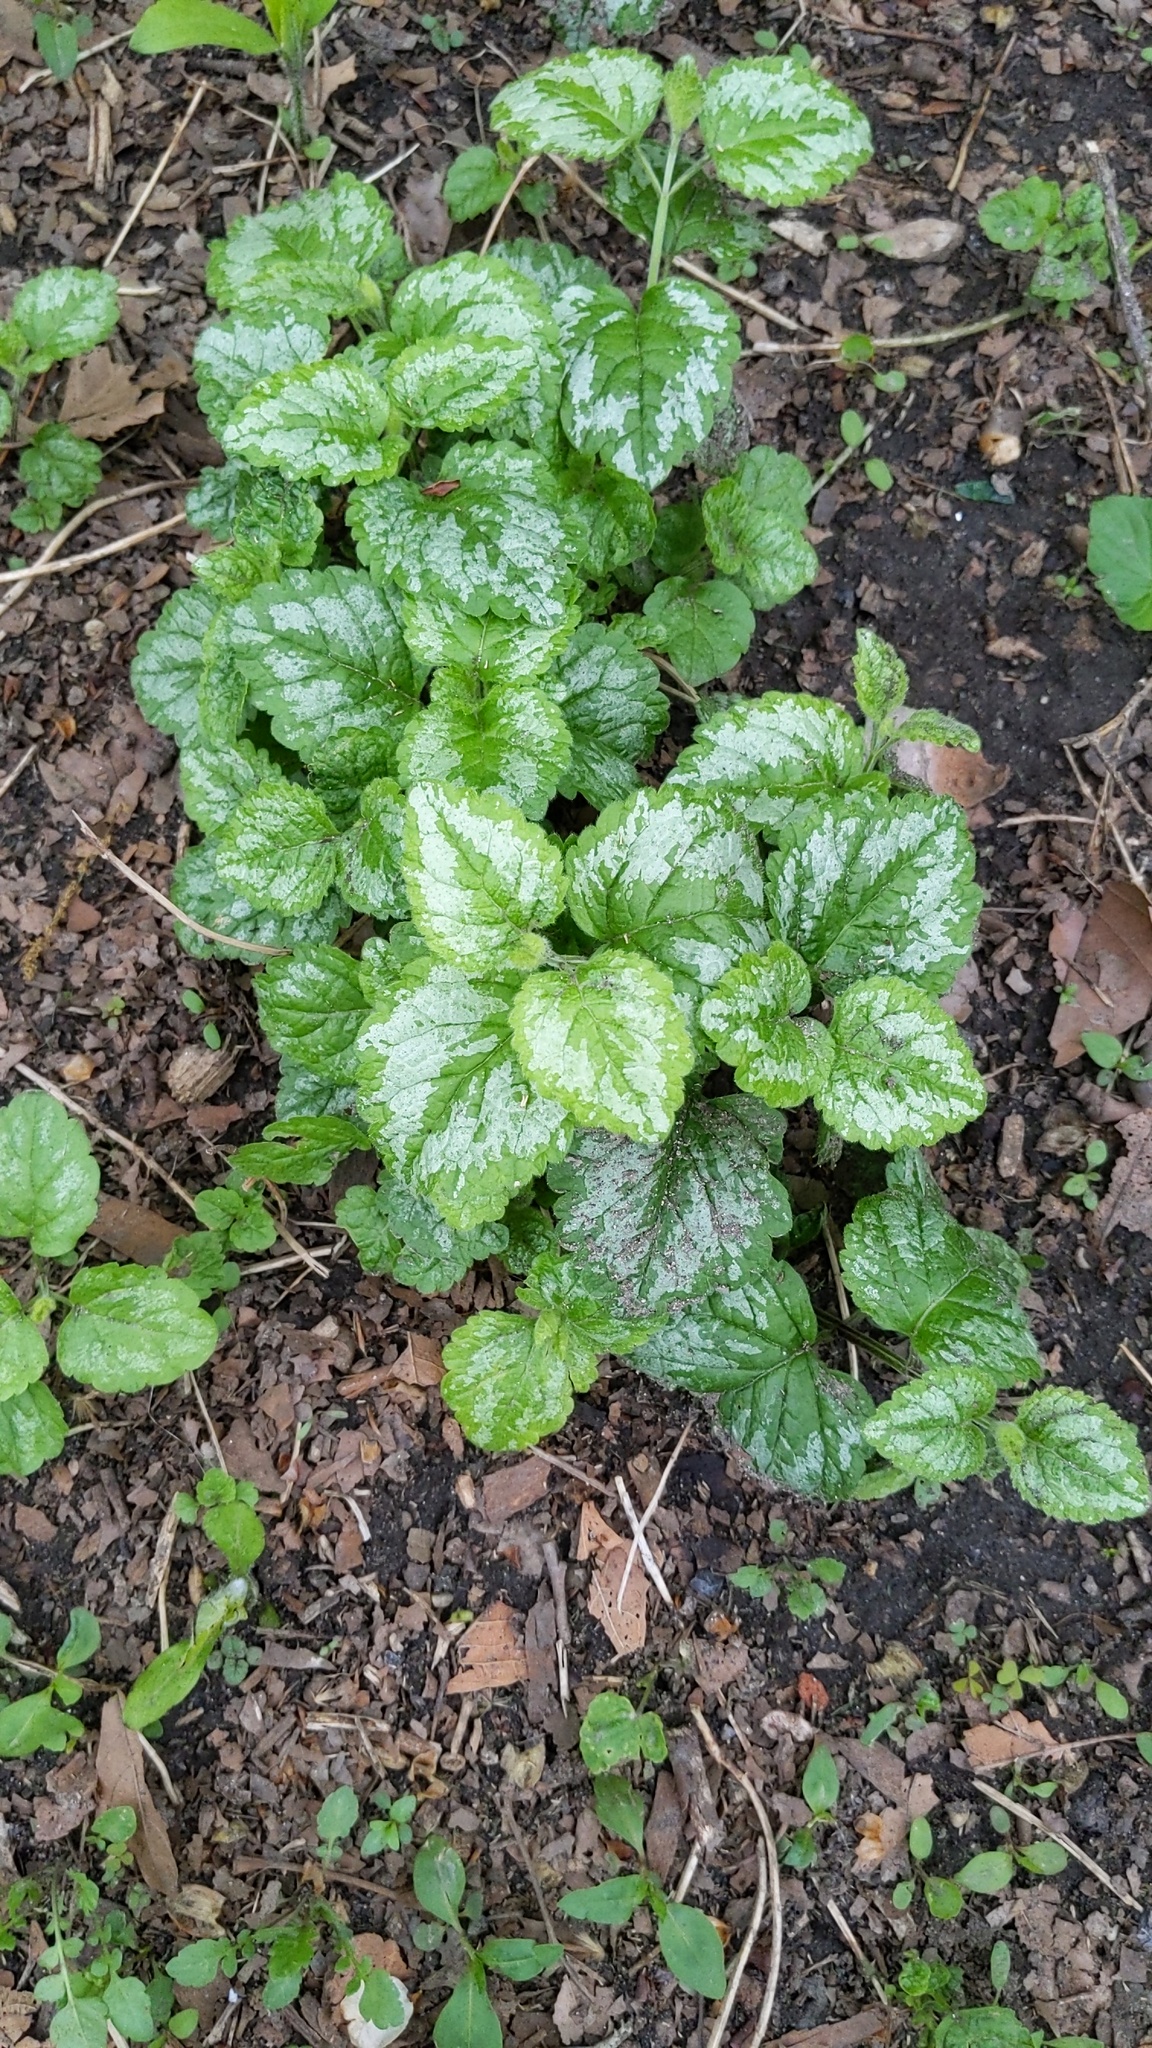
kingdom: Plantae
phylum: Tracheophyta
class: Magnoliopsida
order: Lamiales
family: Lamiaceae
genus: Lamium
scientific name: Lamium galeobdolon
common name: Yellow archangel
